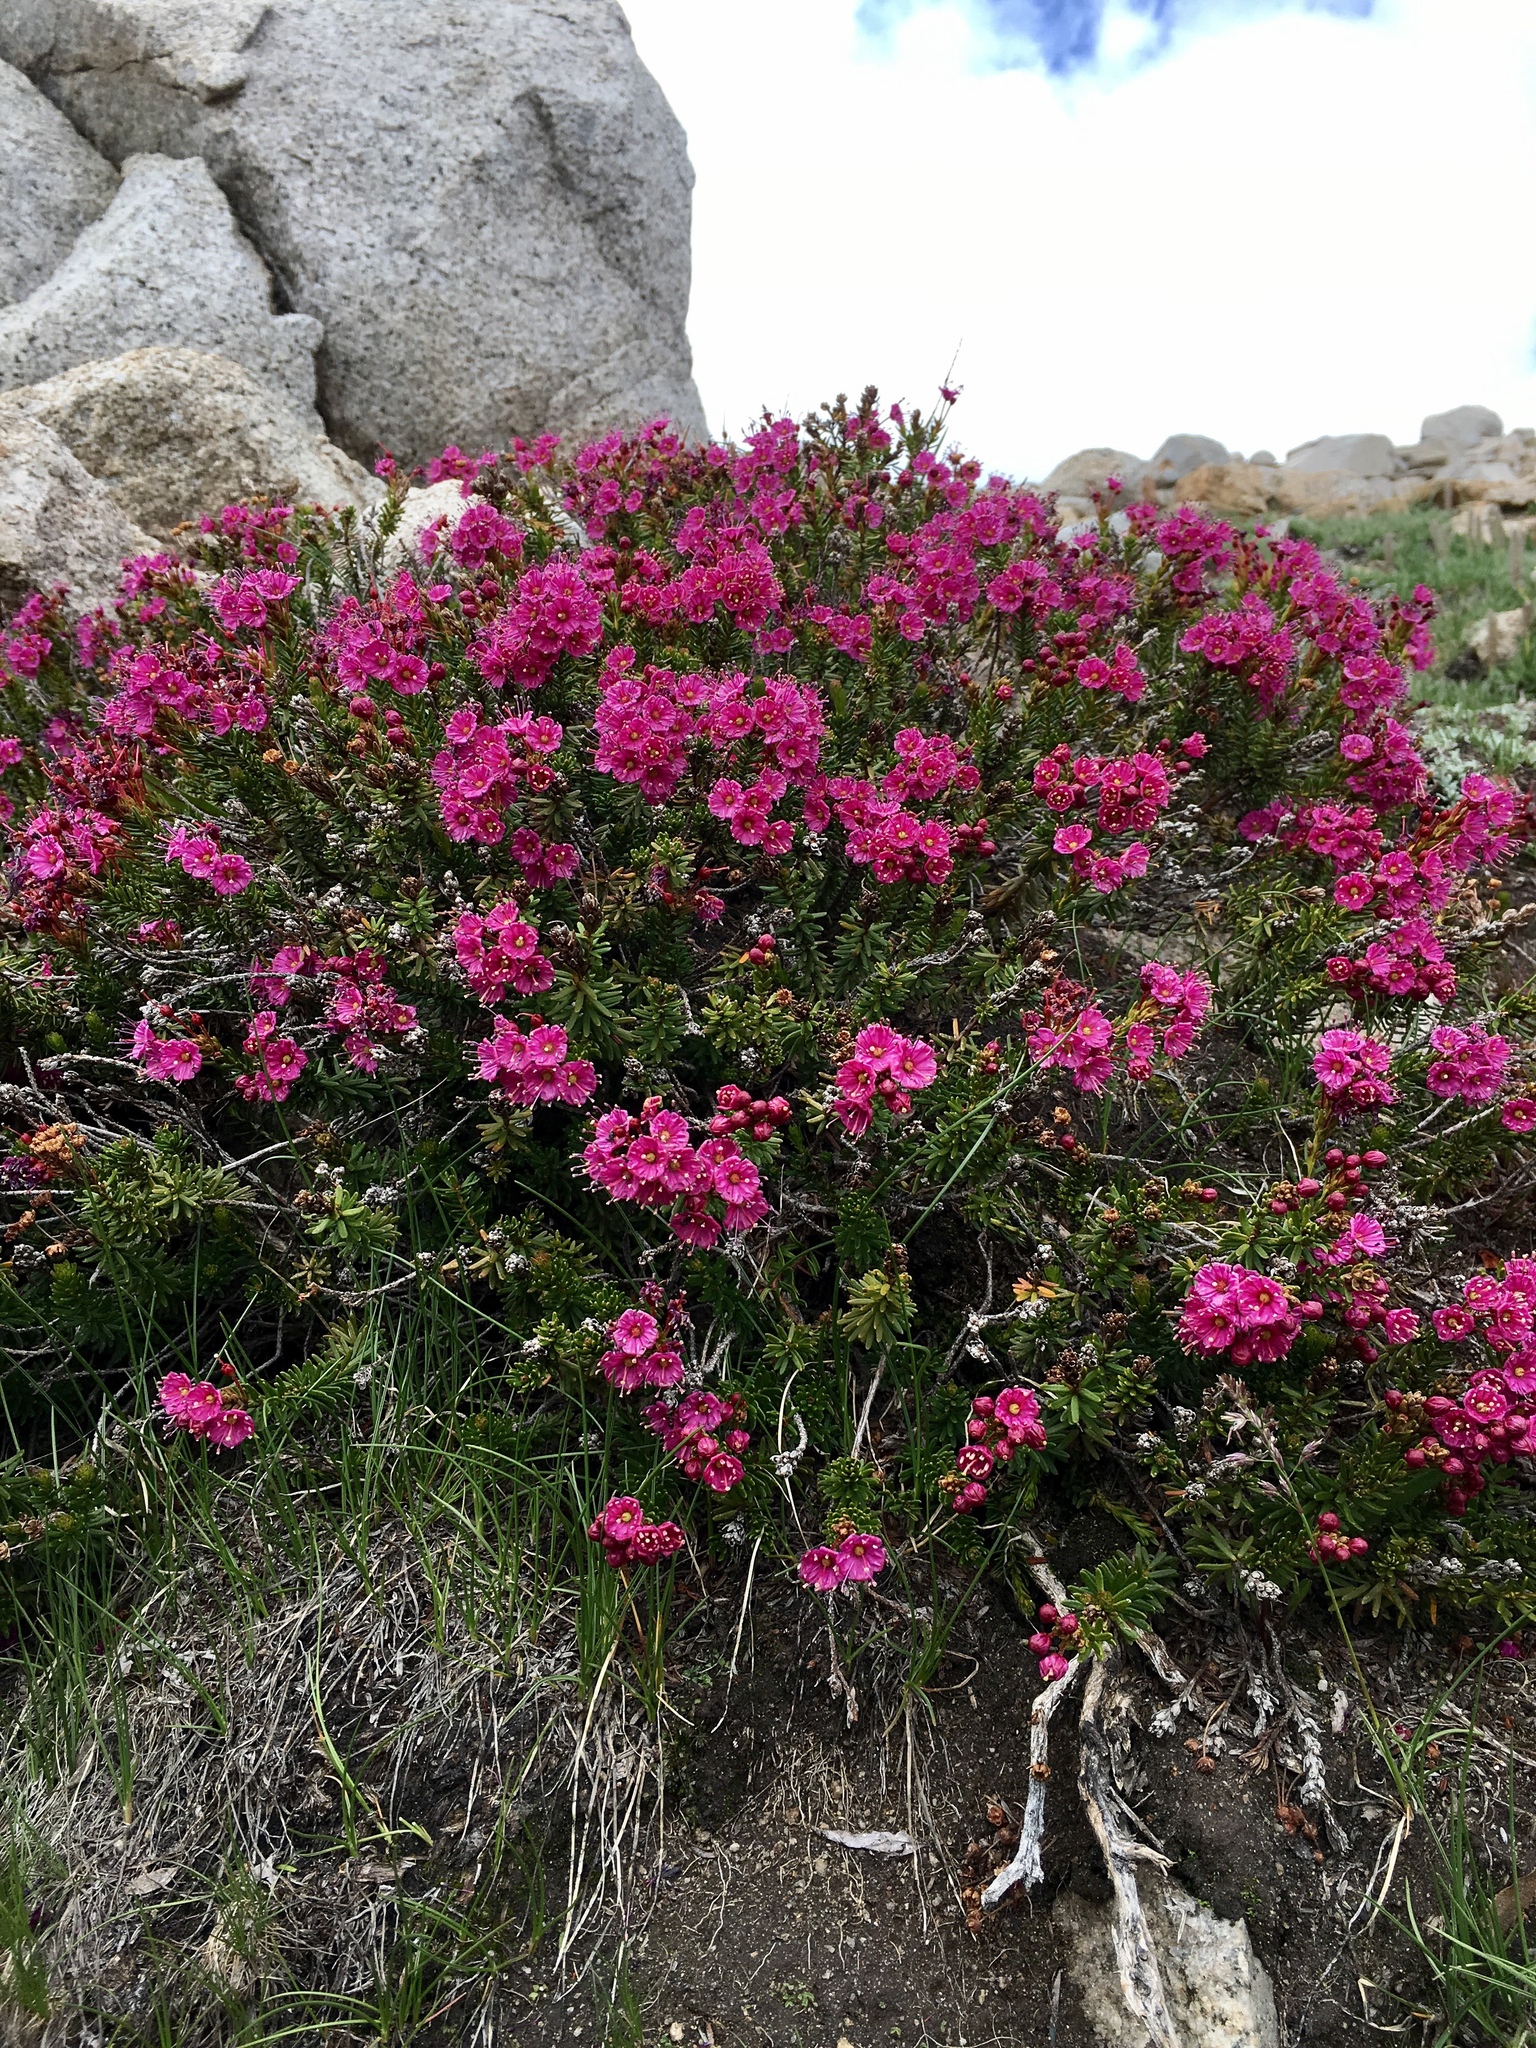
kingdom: Plantae
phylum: Tracheophyta
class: Magnoliopsida
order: Ericales
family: Ericaceae
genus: Phyllodoce
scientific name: Phyllodoce breweri
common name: Brewer's mountain-heather
